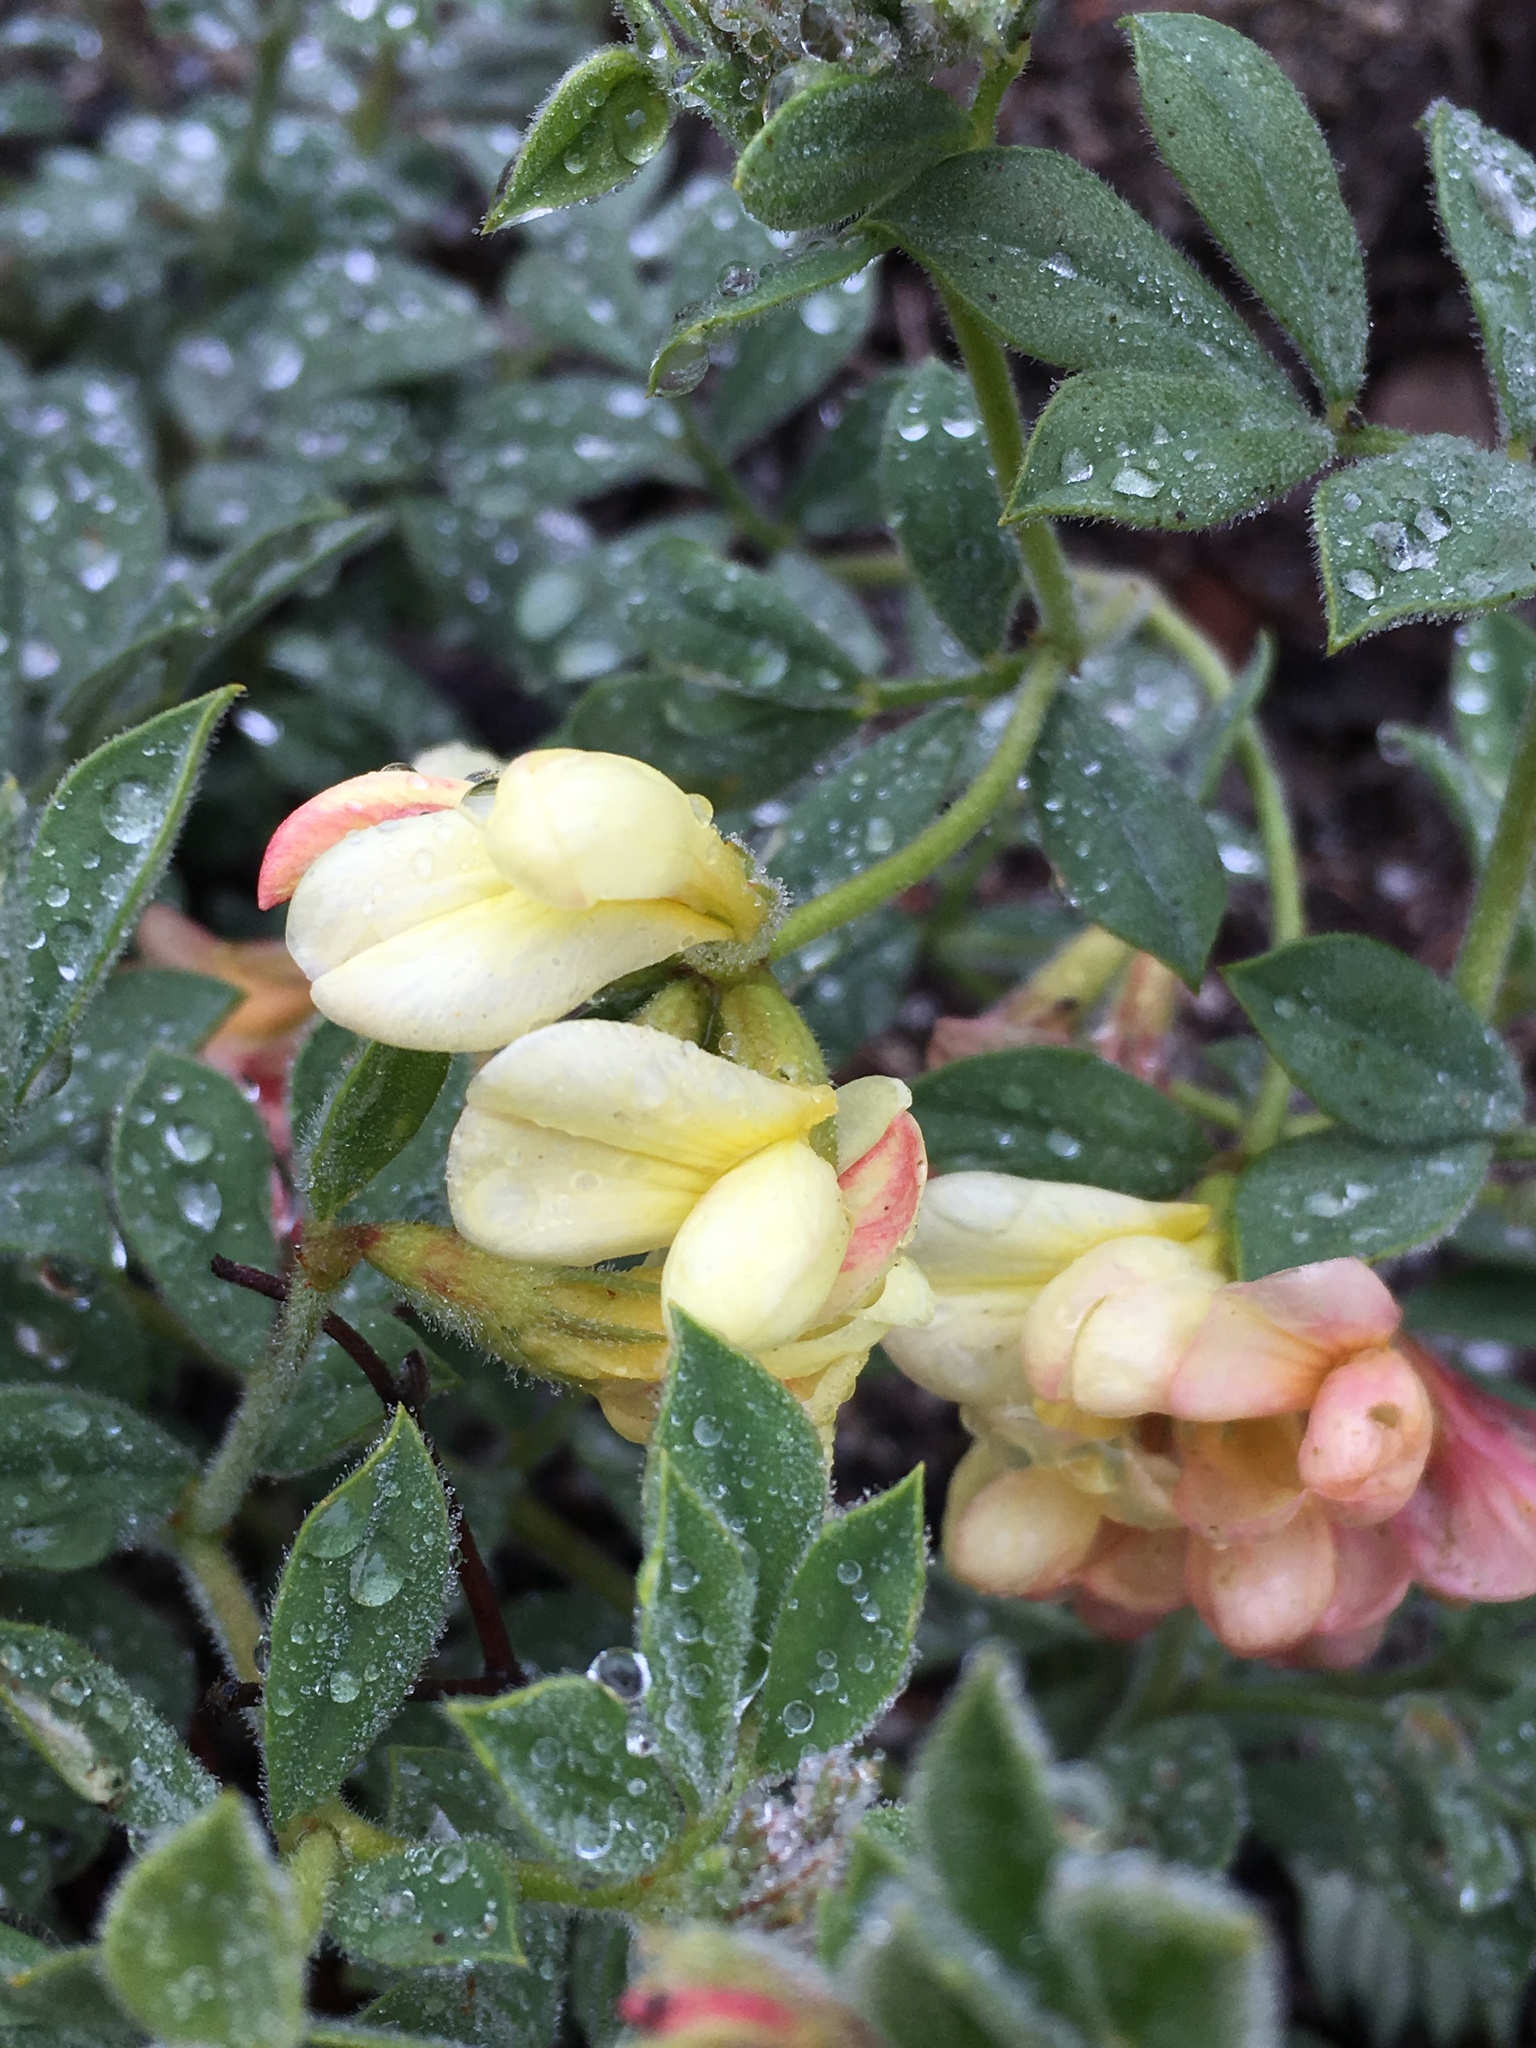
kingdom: Plantae
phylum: Tracheophyta
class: Magnoliopsida
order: Fabales
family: Fabaceae
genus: Acmispon
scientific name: Acmispon grandiflorus
